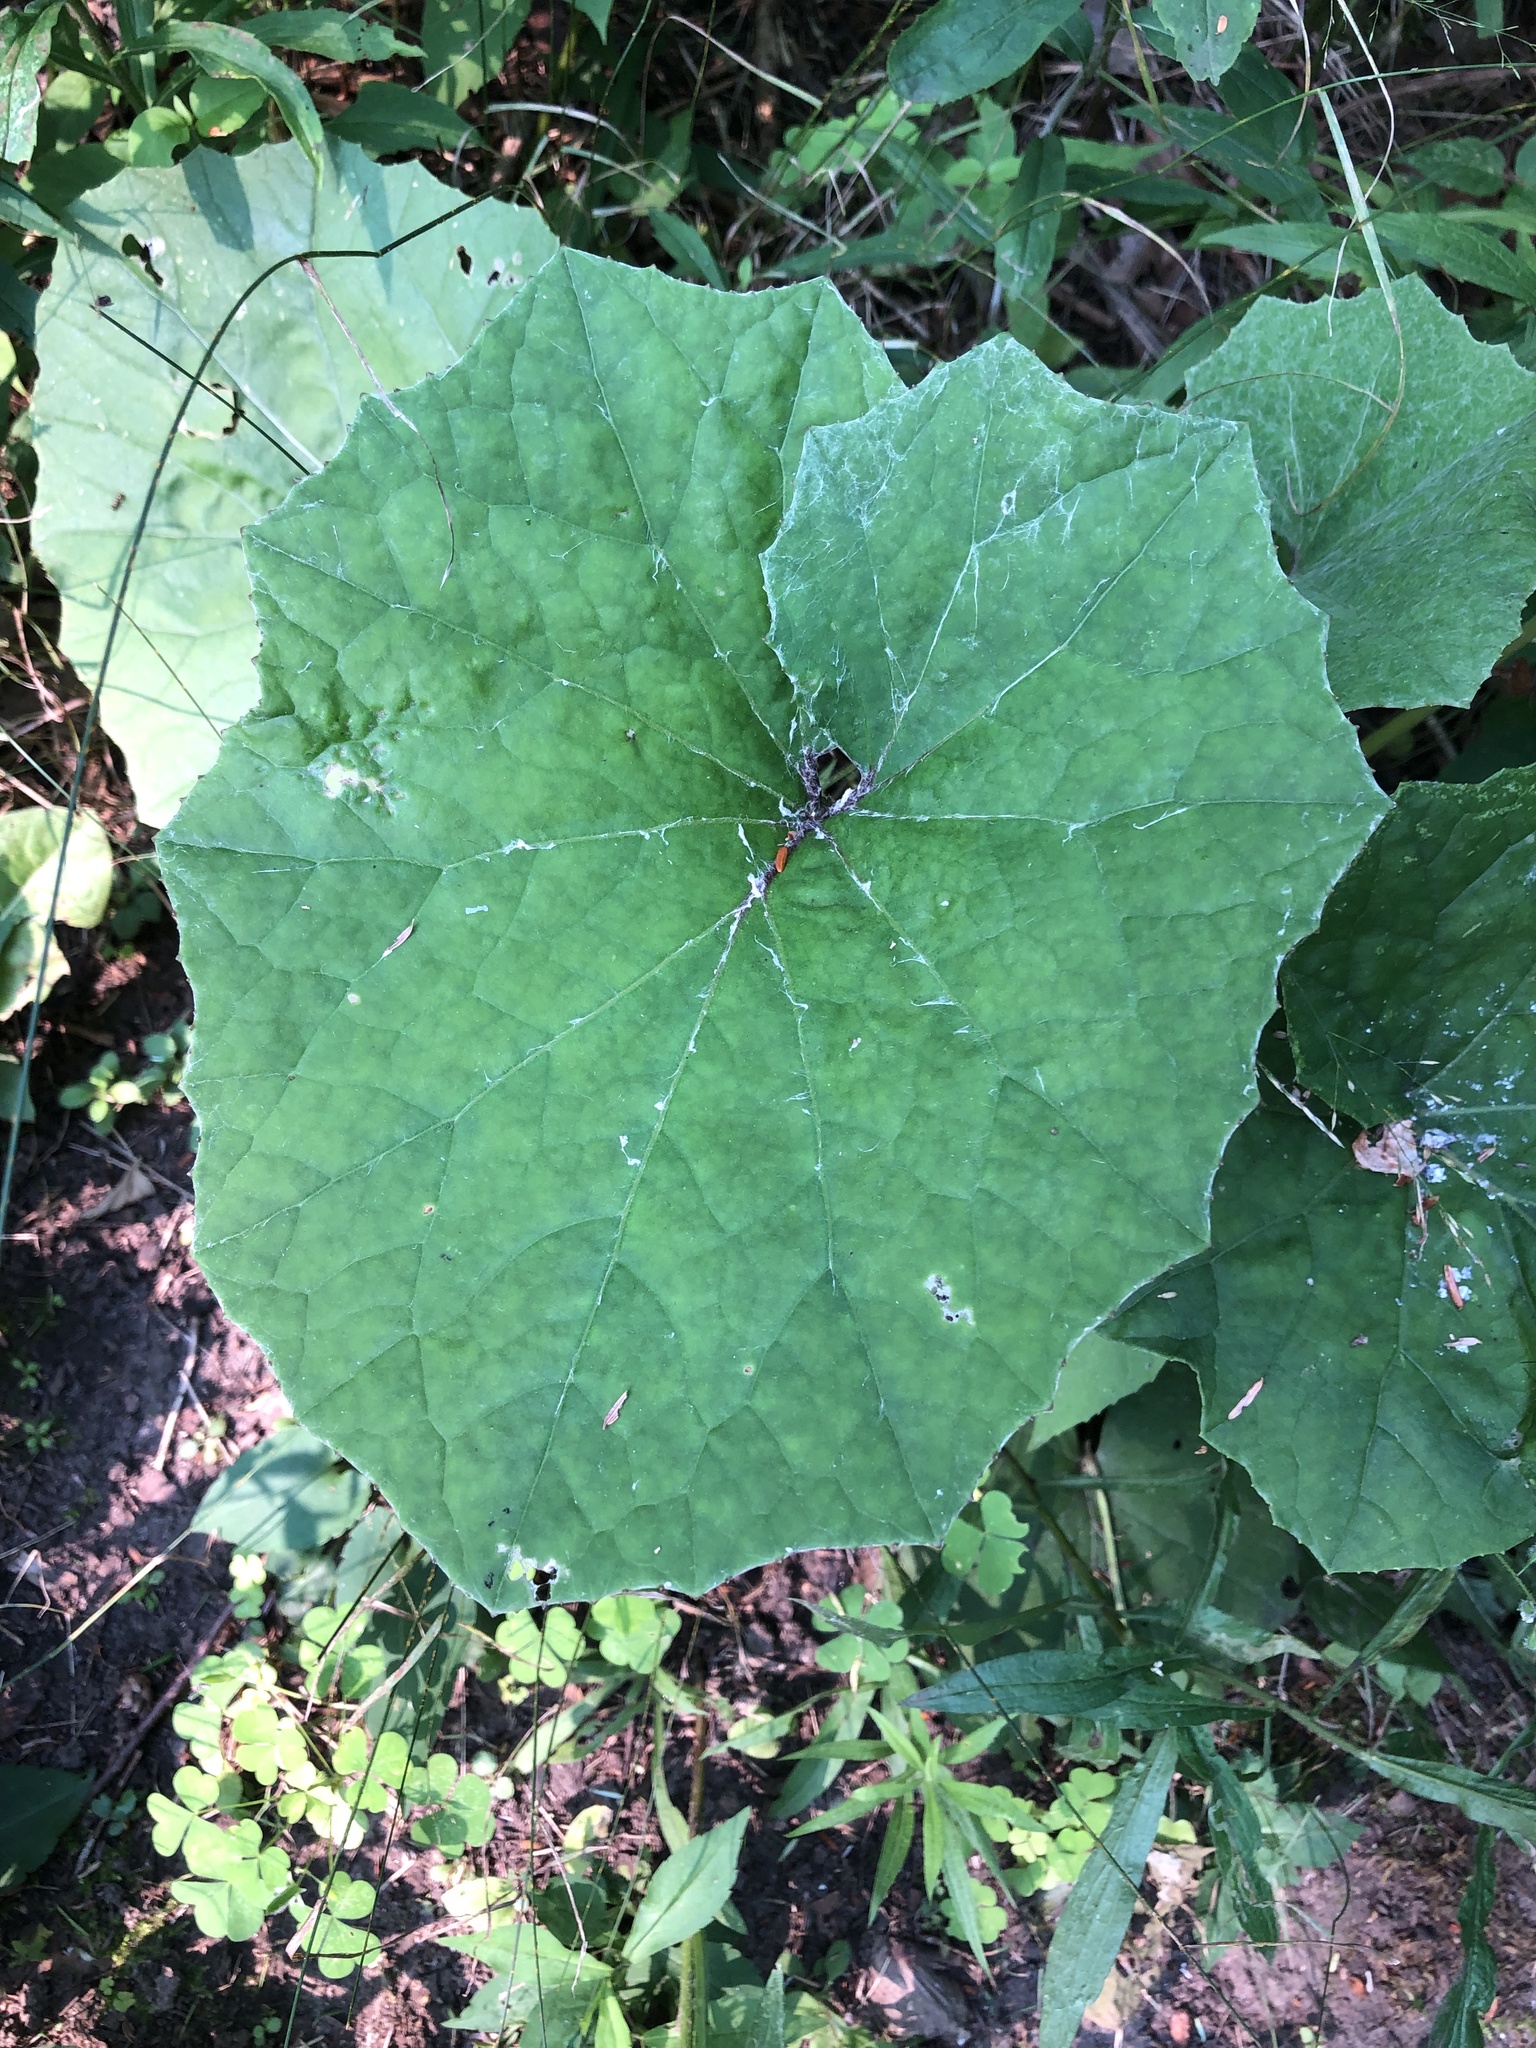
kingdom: Plantae
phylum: Tracheophyta
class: Magnoliopsida
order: Asterales
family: Asteraceae
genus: Tussilago
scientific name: Tussilago farfara
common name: Coltsfoot
